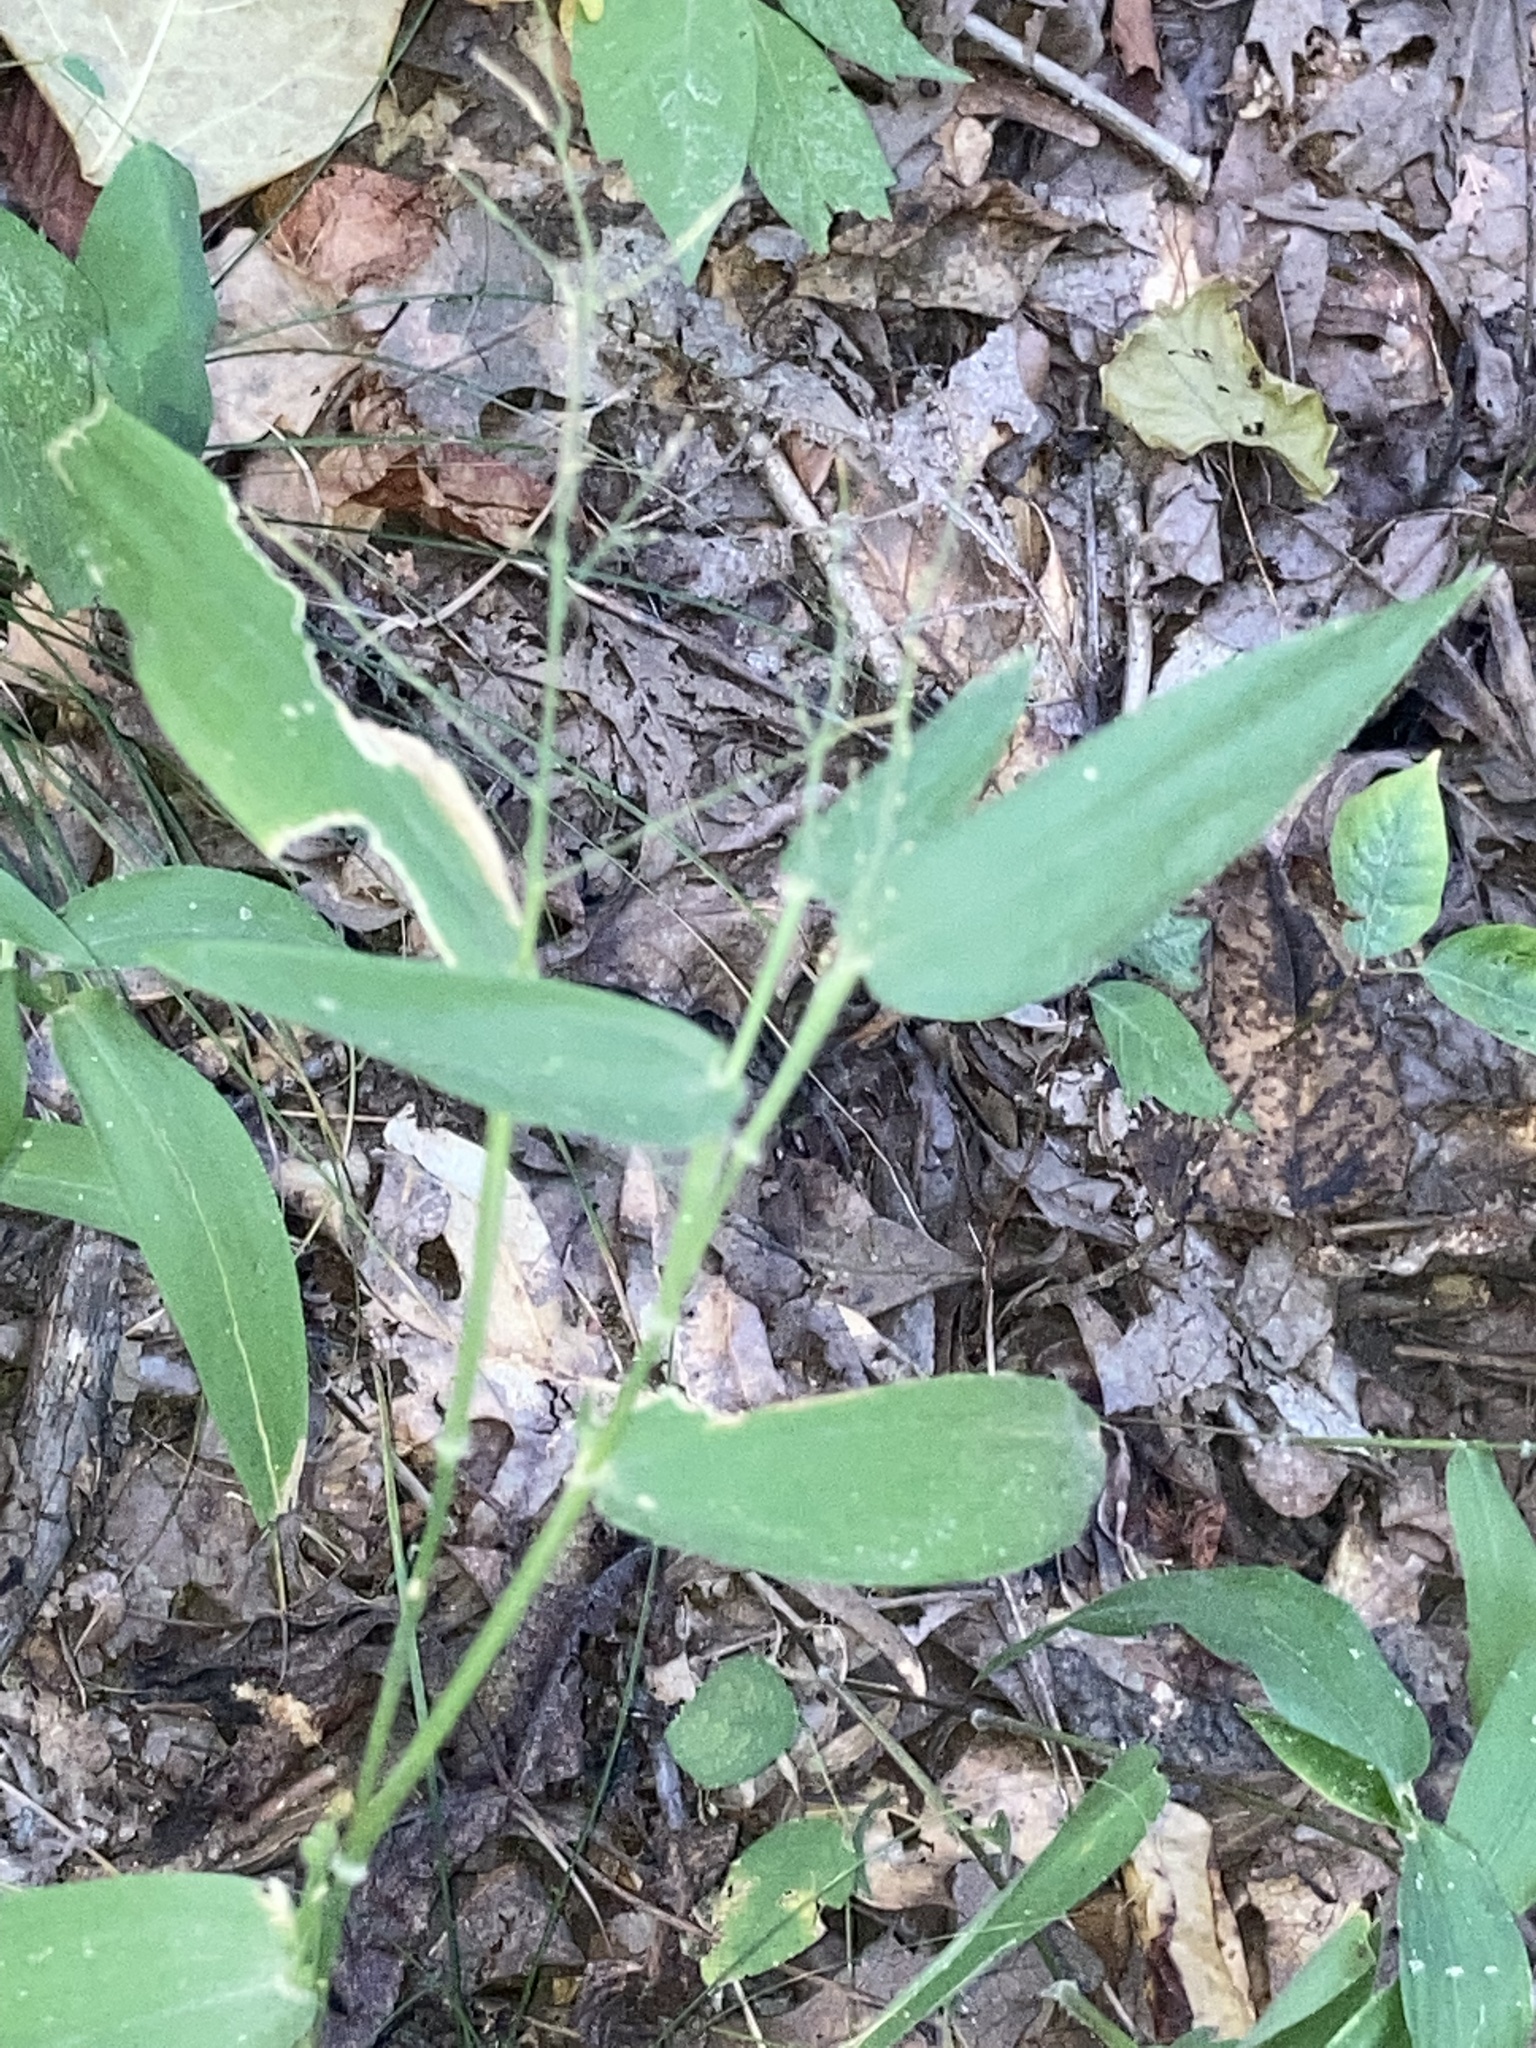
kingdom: Plantae
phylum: Tracheophyta
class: Liliopsida
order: Poales
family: Poaceae
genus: Dichanthelium
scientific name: Dichanthelium boscii
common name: Bosc's panic grass
